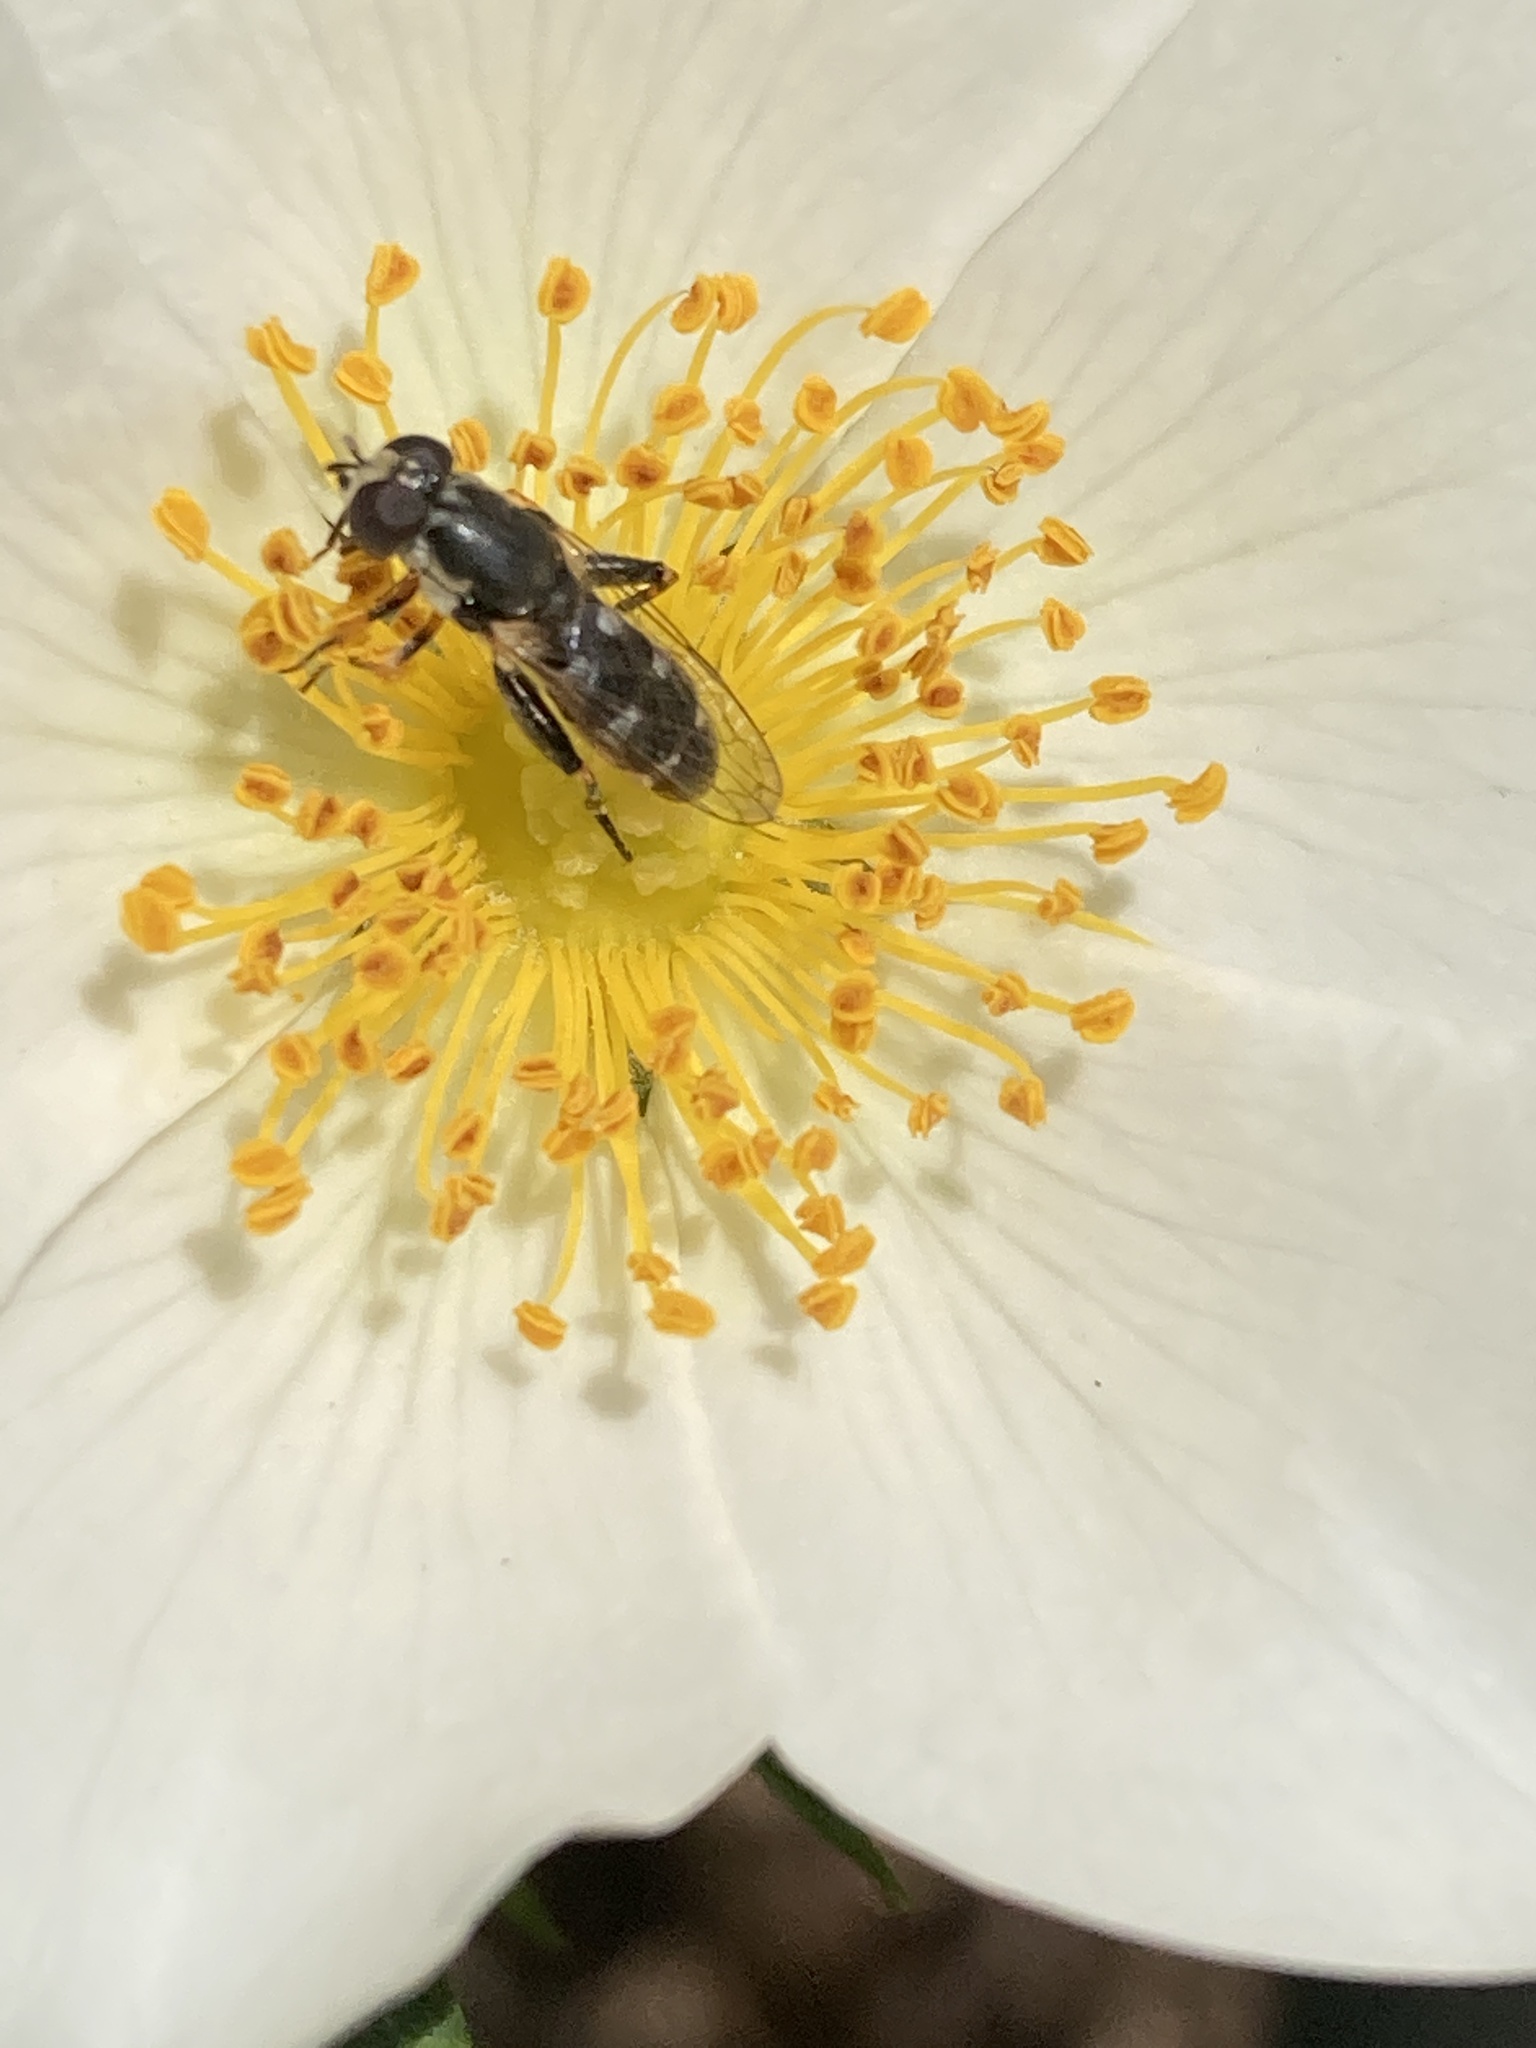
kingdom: Animalia
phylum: Arthropoda
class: Insecta
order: Diptera
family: Syrphidae
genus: Syritta
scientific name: Syritta pipiens
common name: Hover fly
